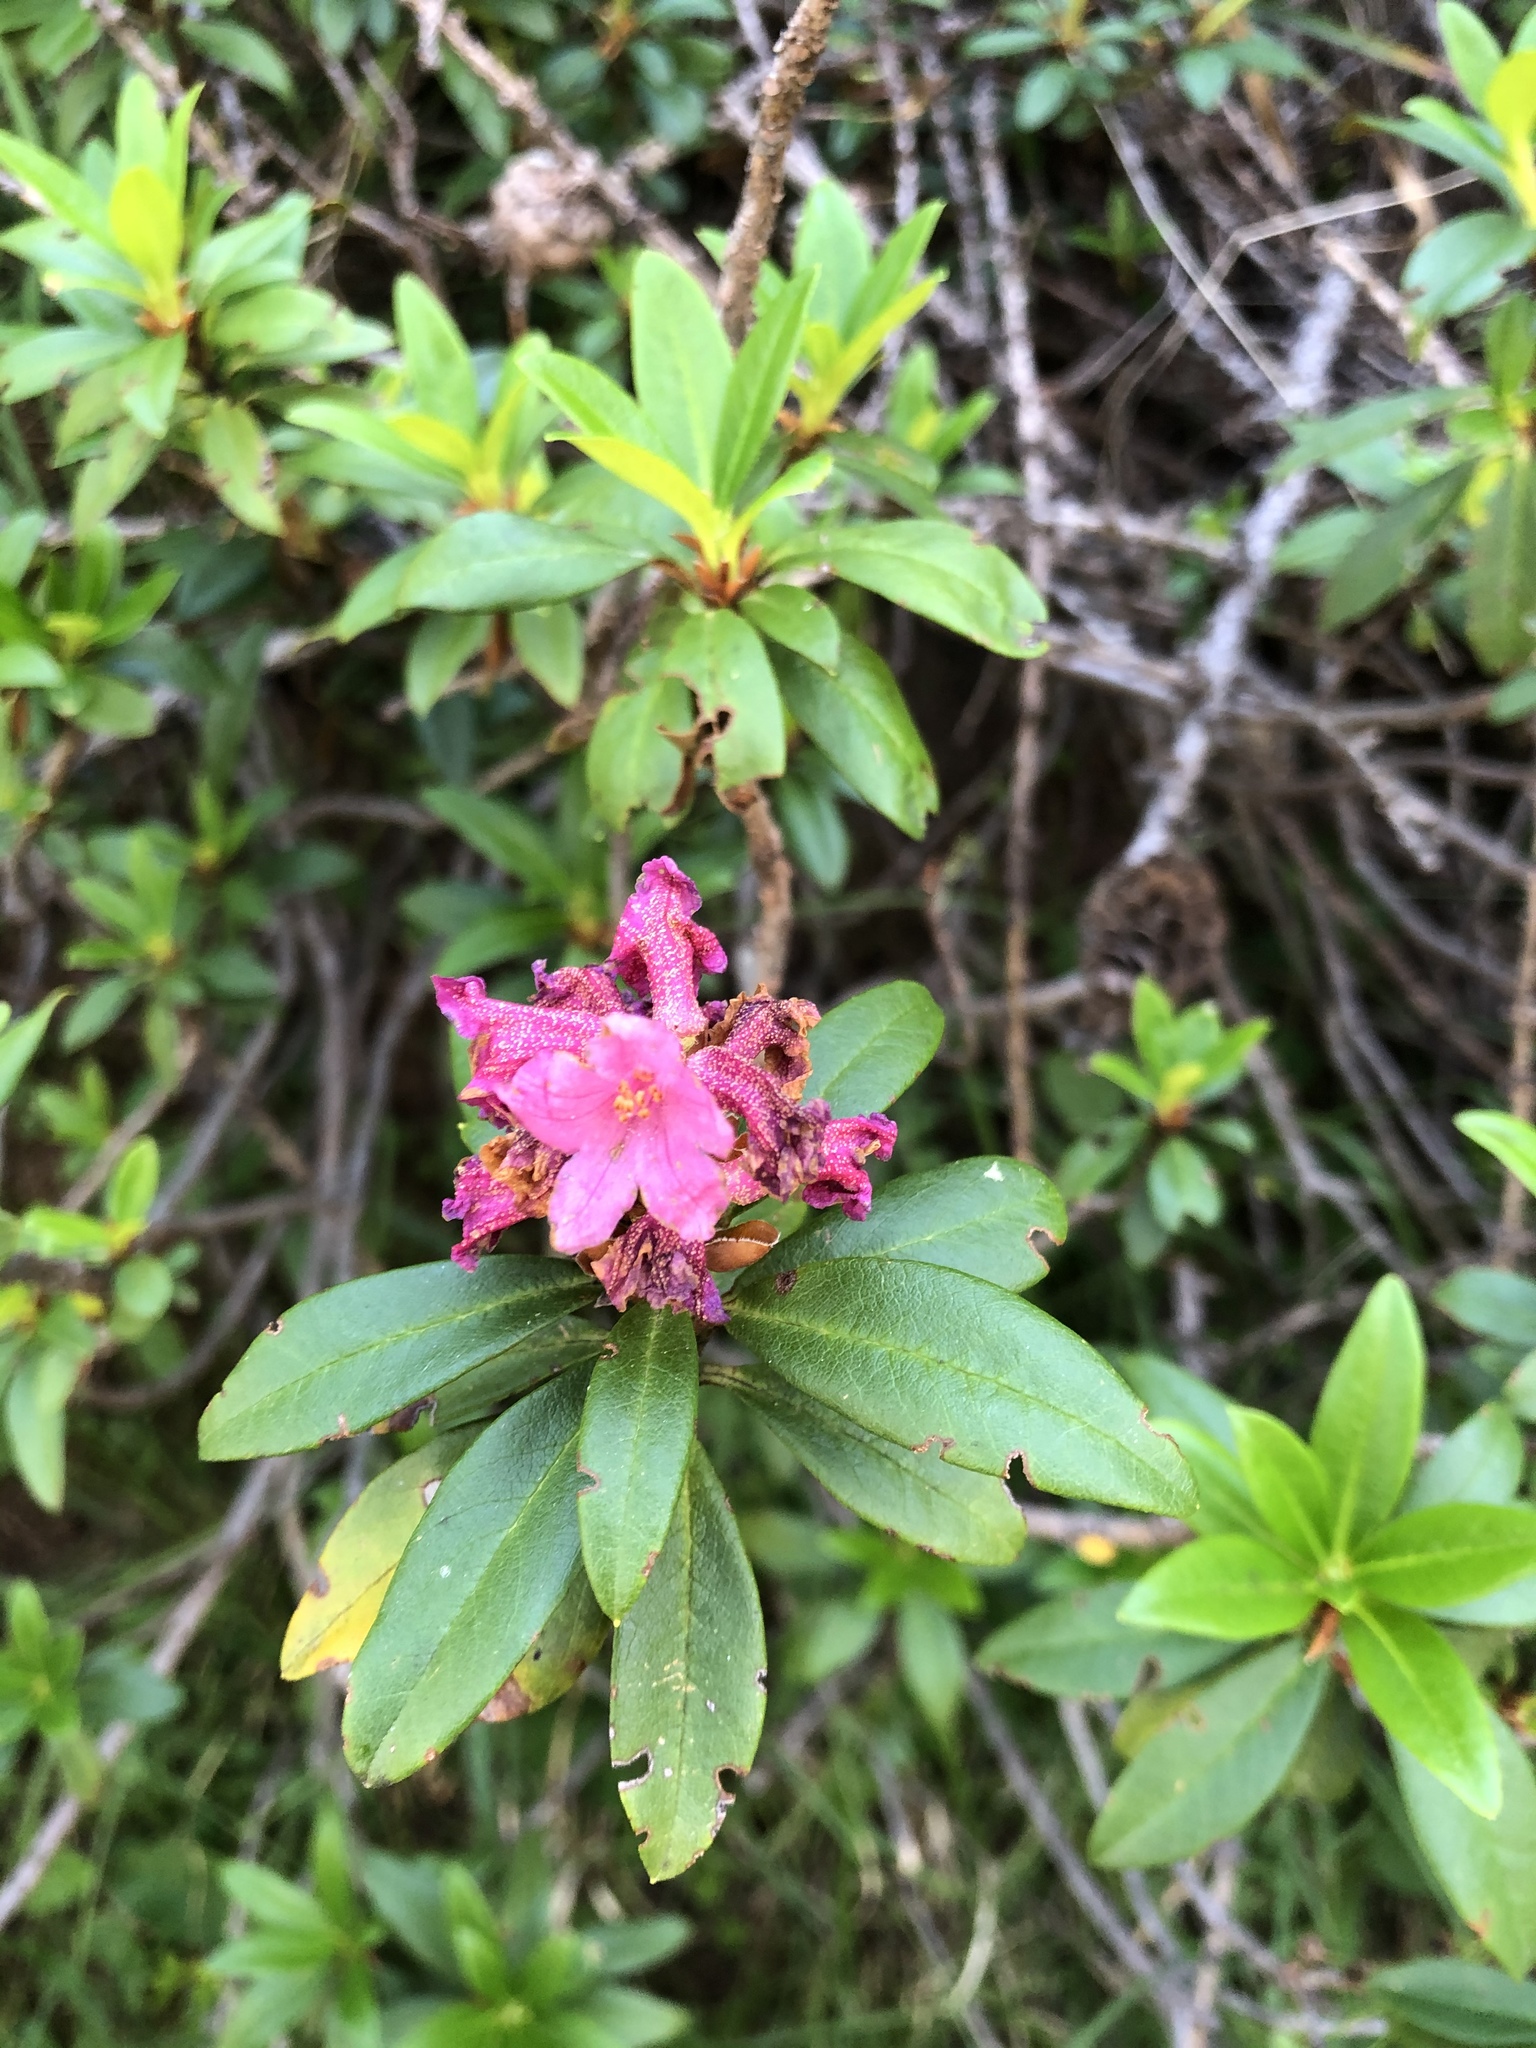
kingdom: Plantae
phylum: Tracheophyta
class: Magnoliopsida
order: Ericales
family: Ericaceae
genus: Rhododendron
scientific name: Rhododendron ferrugineum
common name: Alpenrose
